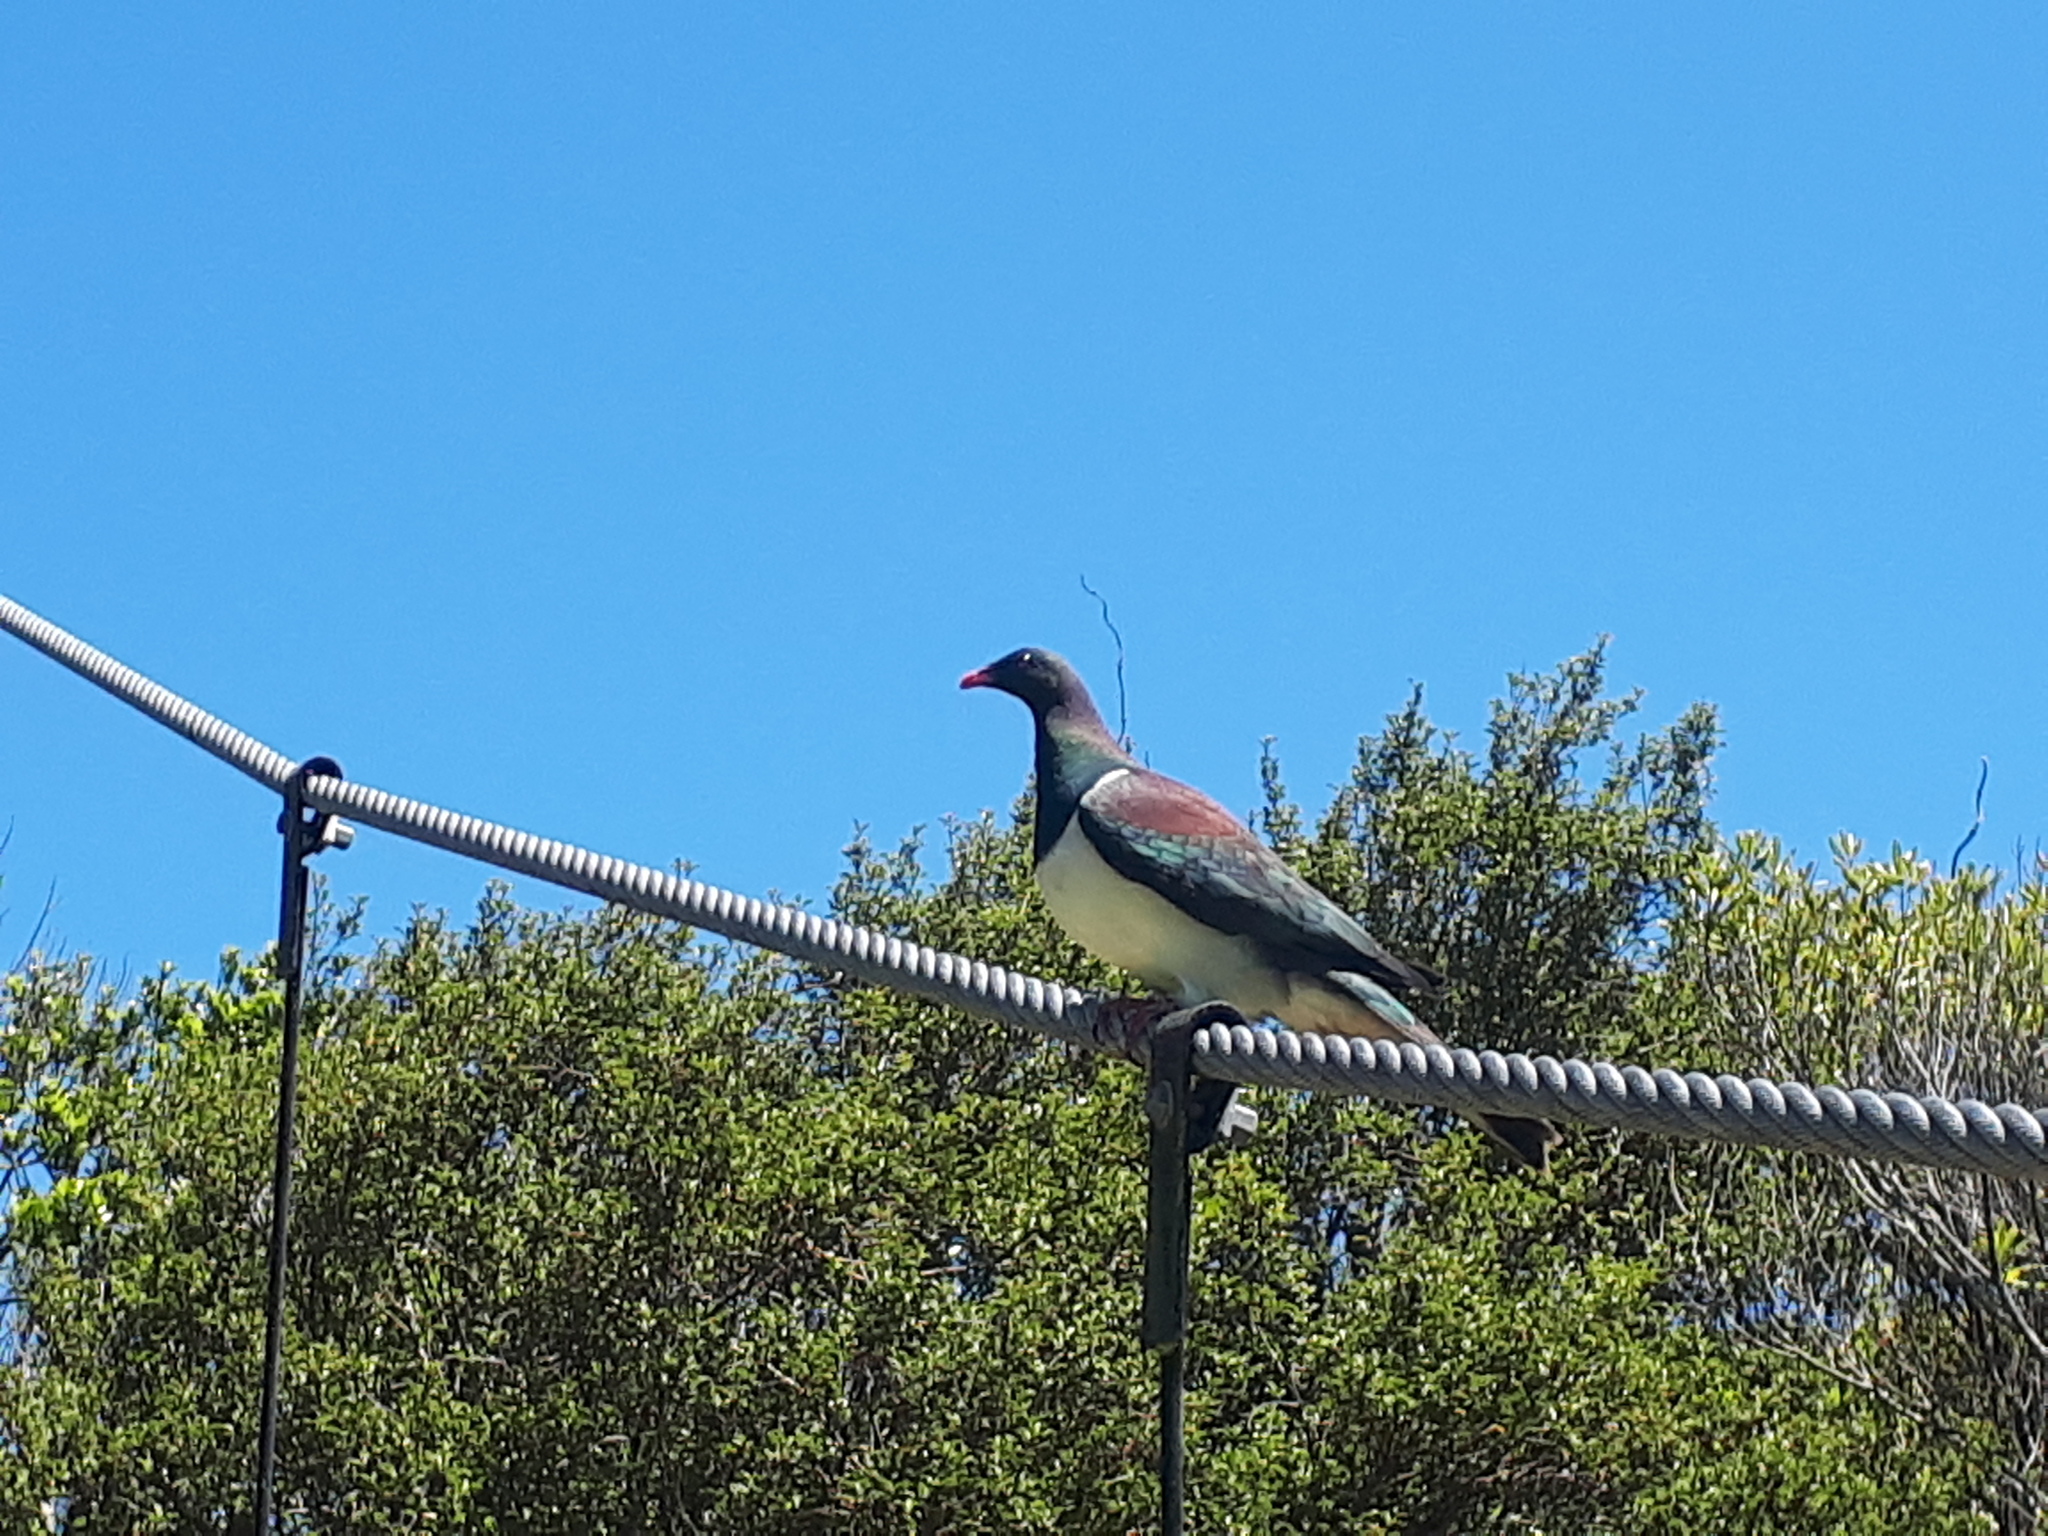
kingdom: Animalia
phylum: Chordata
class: Aves
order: Columbiformes
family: Columbidae
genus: Hemiphaga
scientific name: Hemiphaga novaeseelandiae
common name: New zealand pigeon
